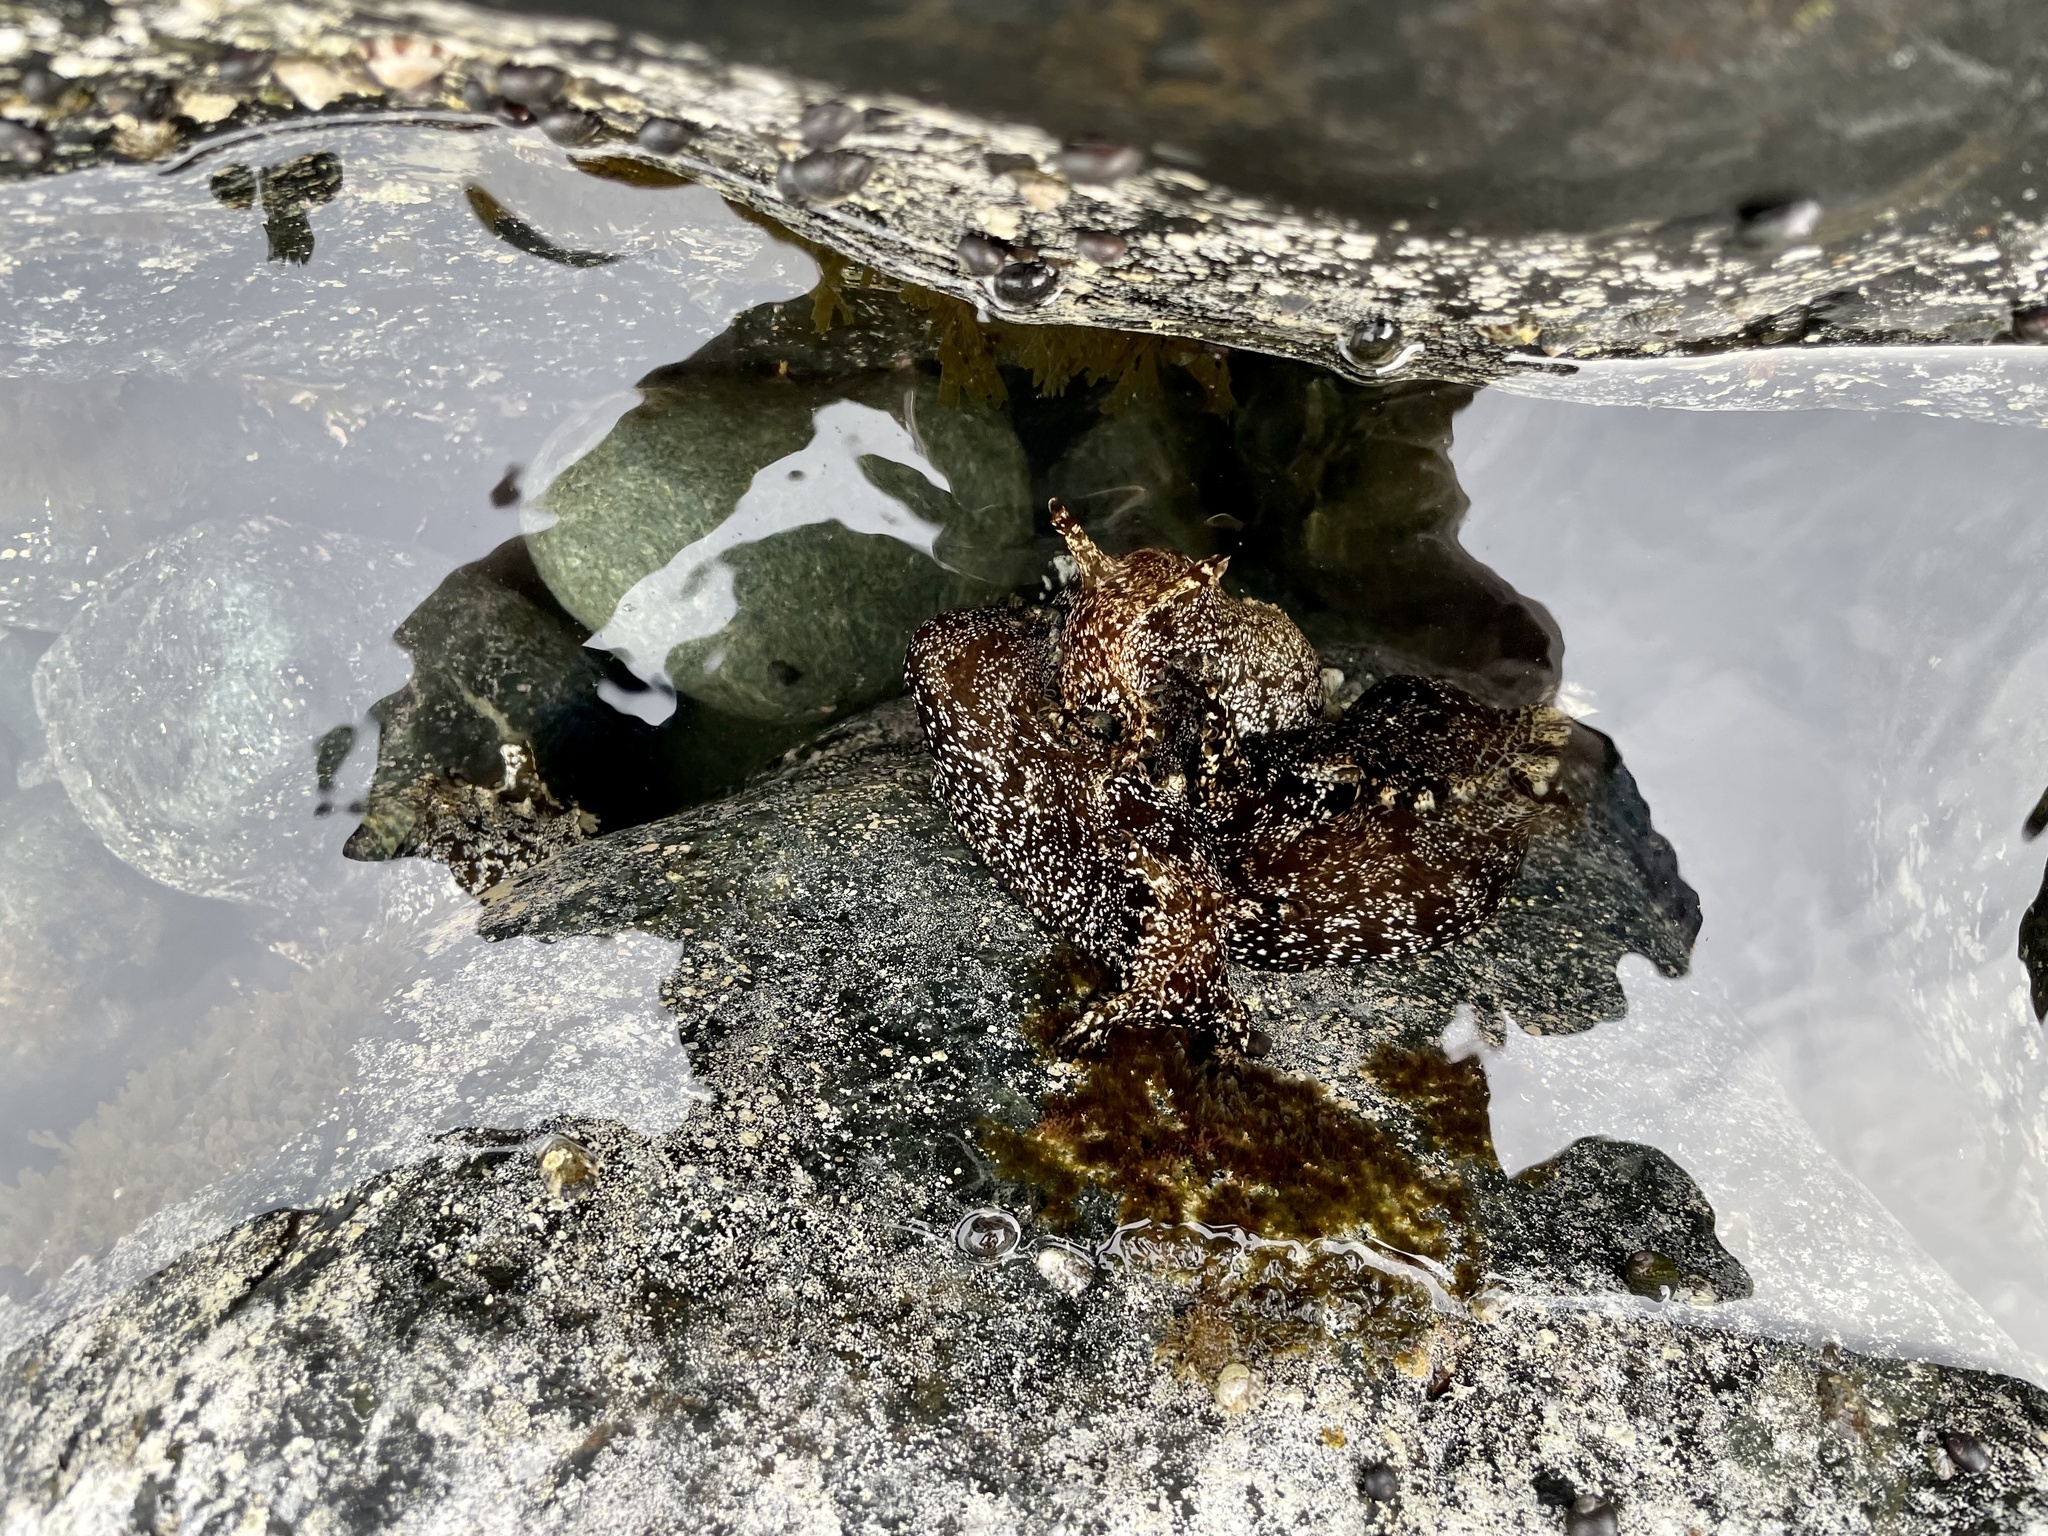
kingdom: Animalia
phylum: Mollusca
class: Gastropoda
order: Aplysiida
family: Aplysiidae
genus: Aplysia
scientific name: Aplysia kurodai
